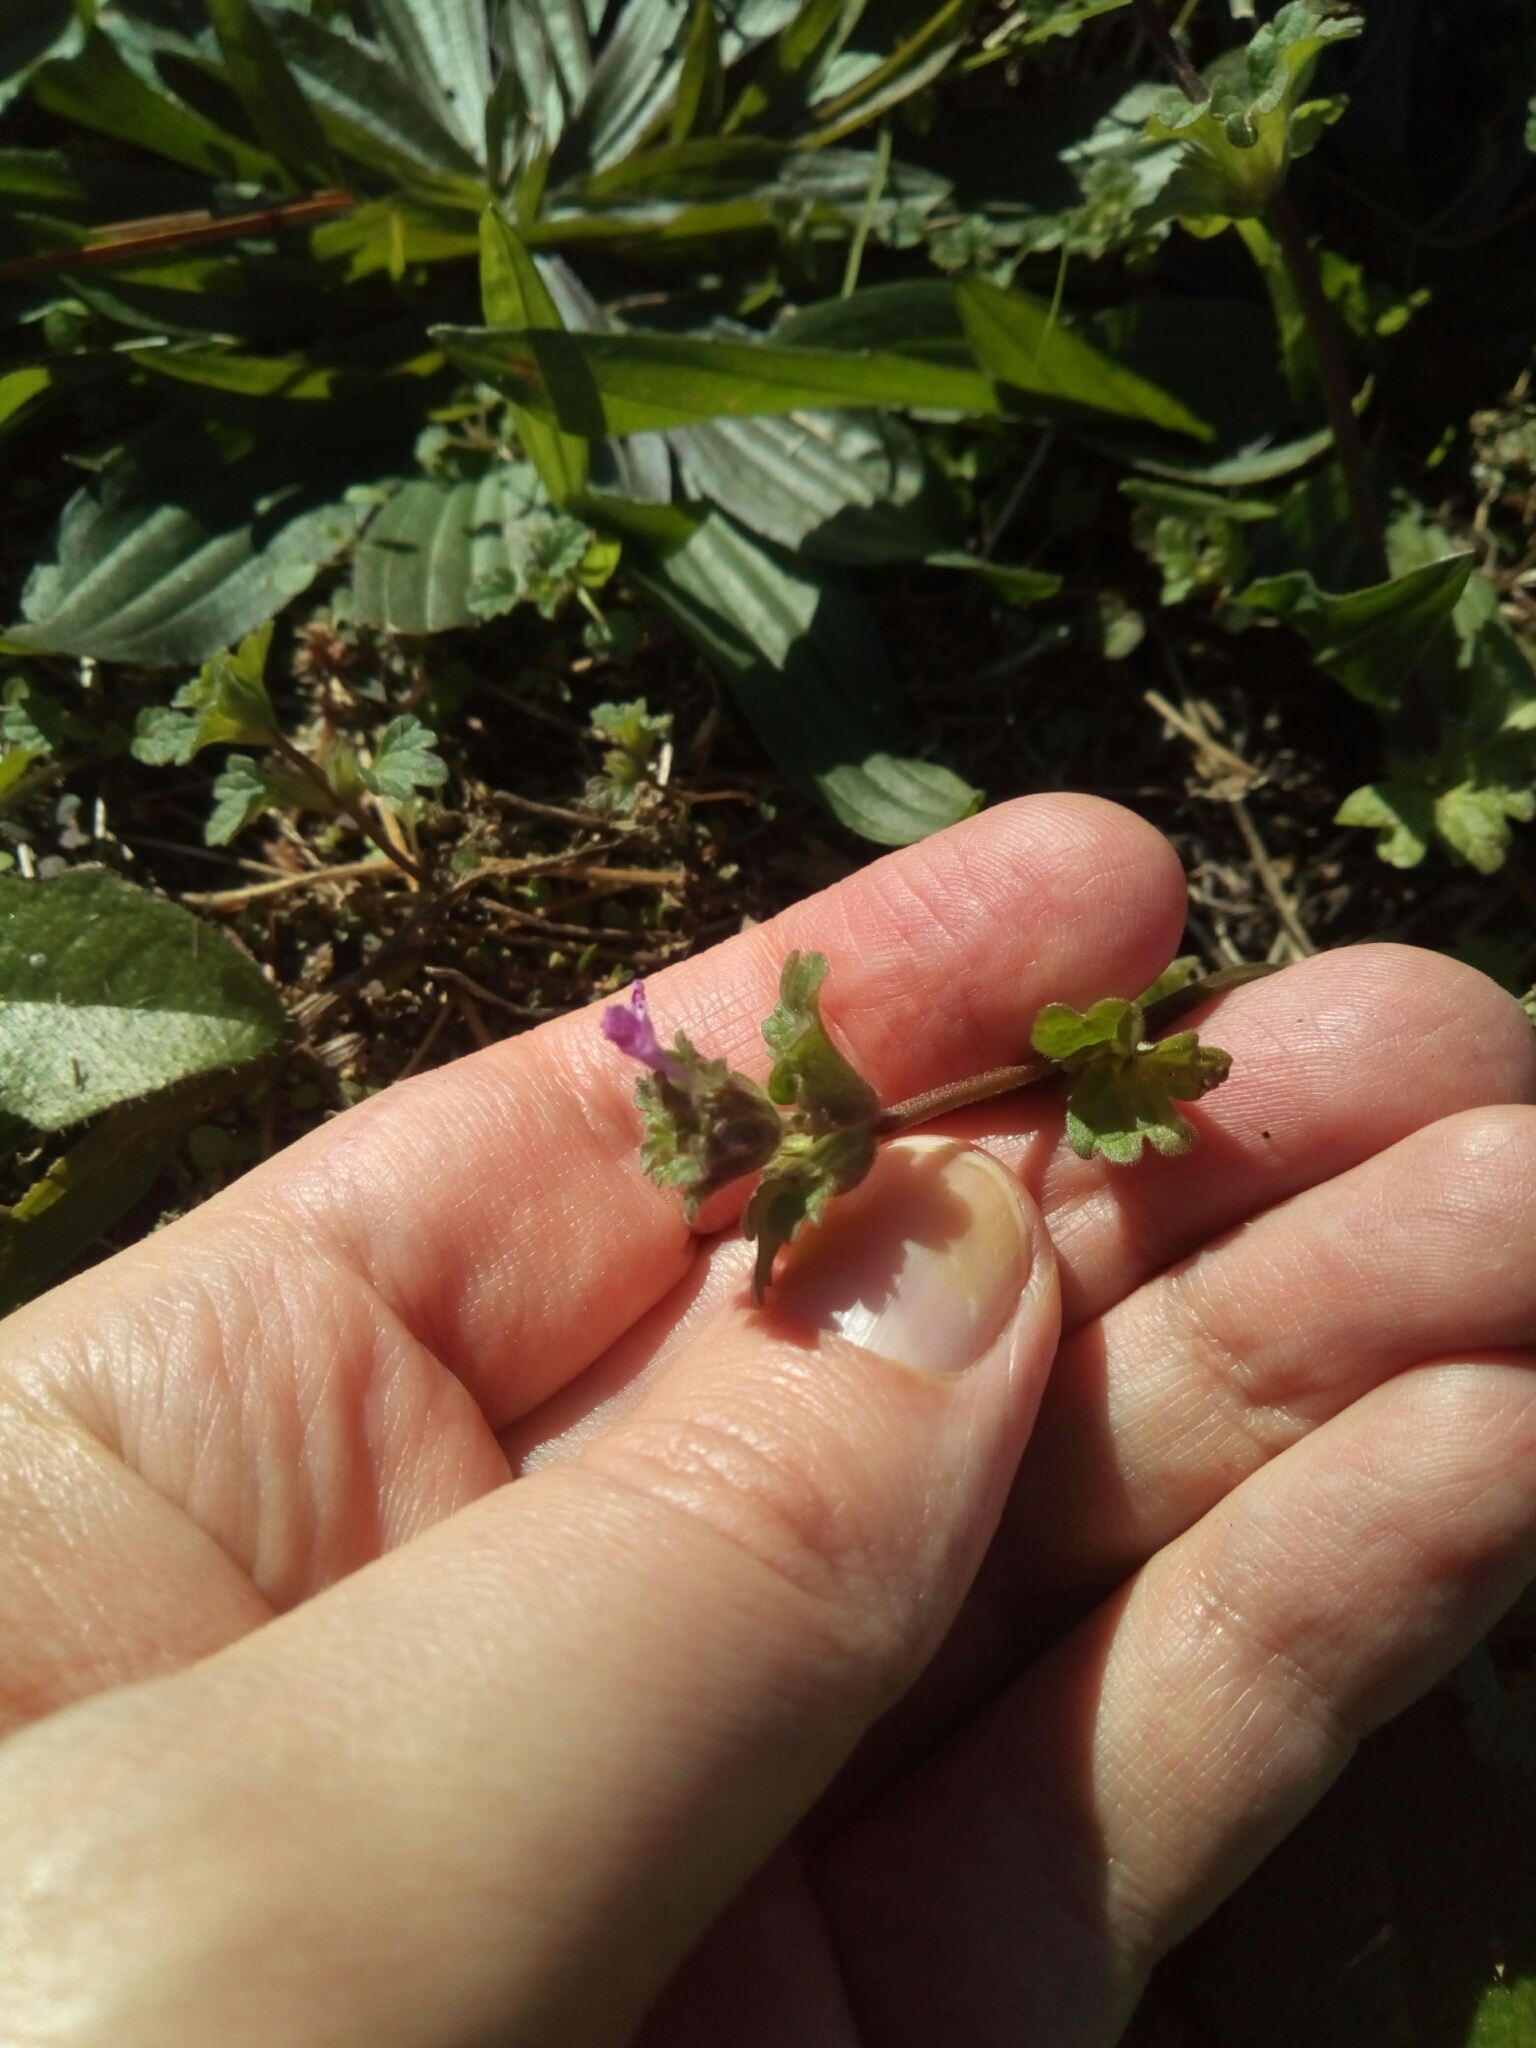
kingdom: Plantae
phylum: Tracheophyta
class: Magnoliopsida
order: Lamiales
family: Lamiaceae
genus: Lamium
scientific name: Lamium amplexicaule
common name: Henbit dead-nettle
